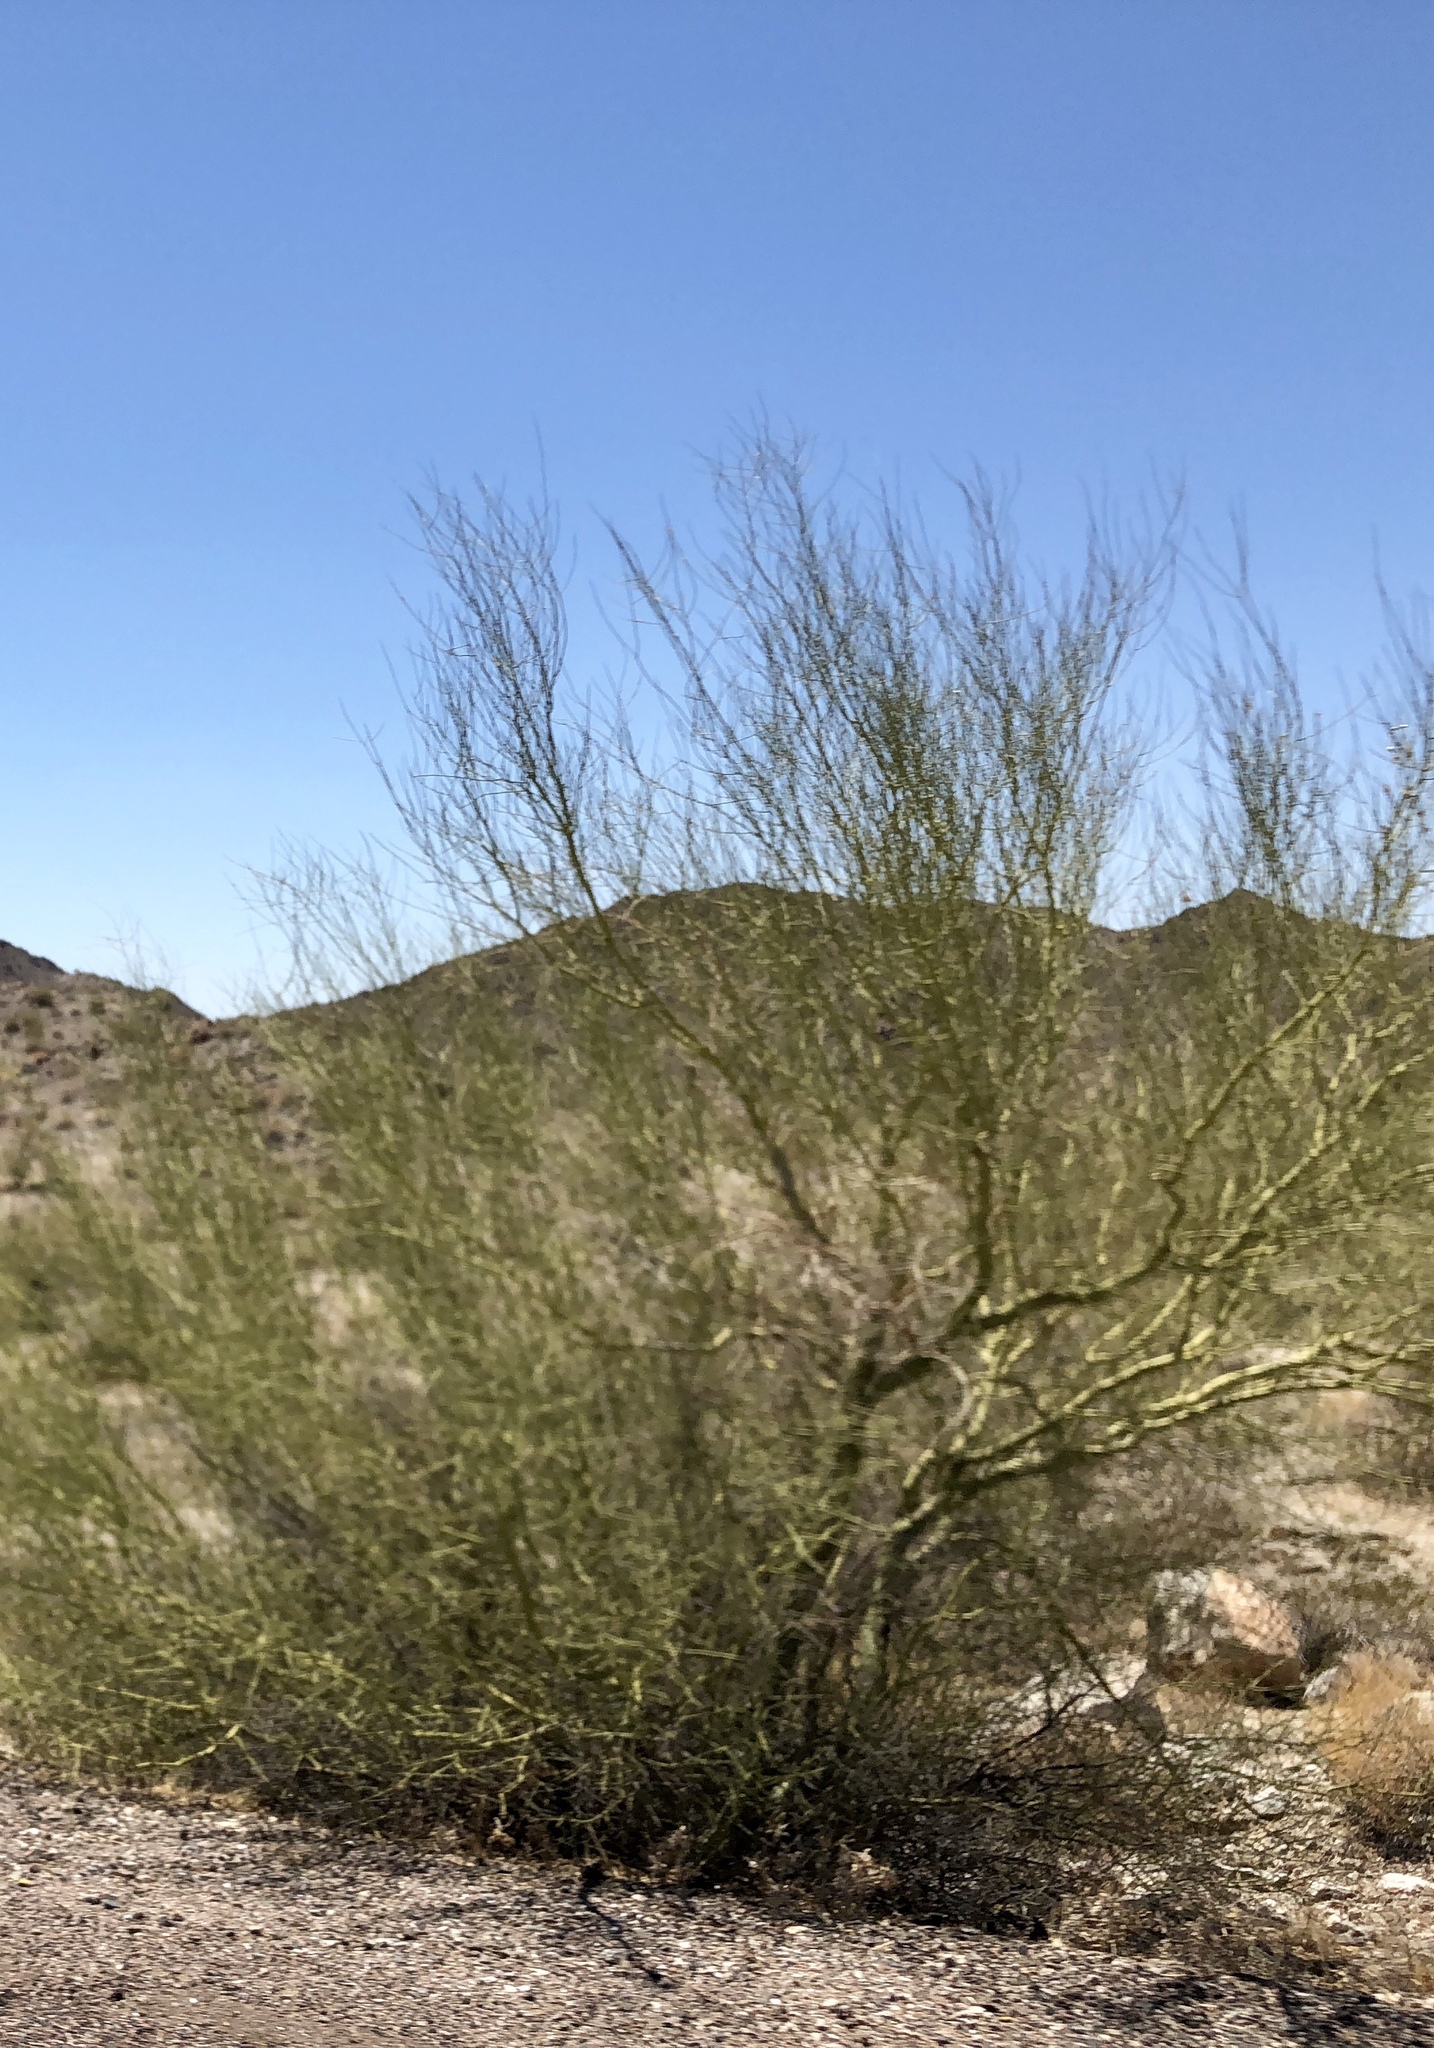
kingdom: Plantae
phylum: Tracheophyta
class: Magnoliopsida
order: Fabales
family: Fabaceae
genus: Parkinsonia
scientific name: Parkinsonia microphylla
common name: Yellow paloverde
